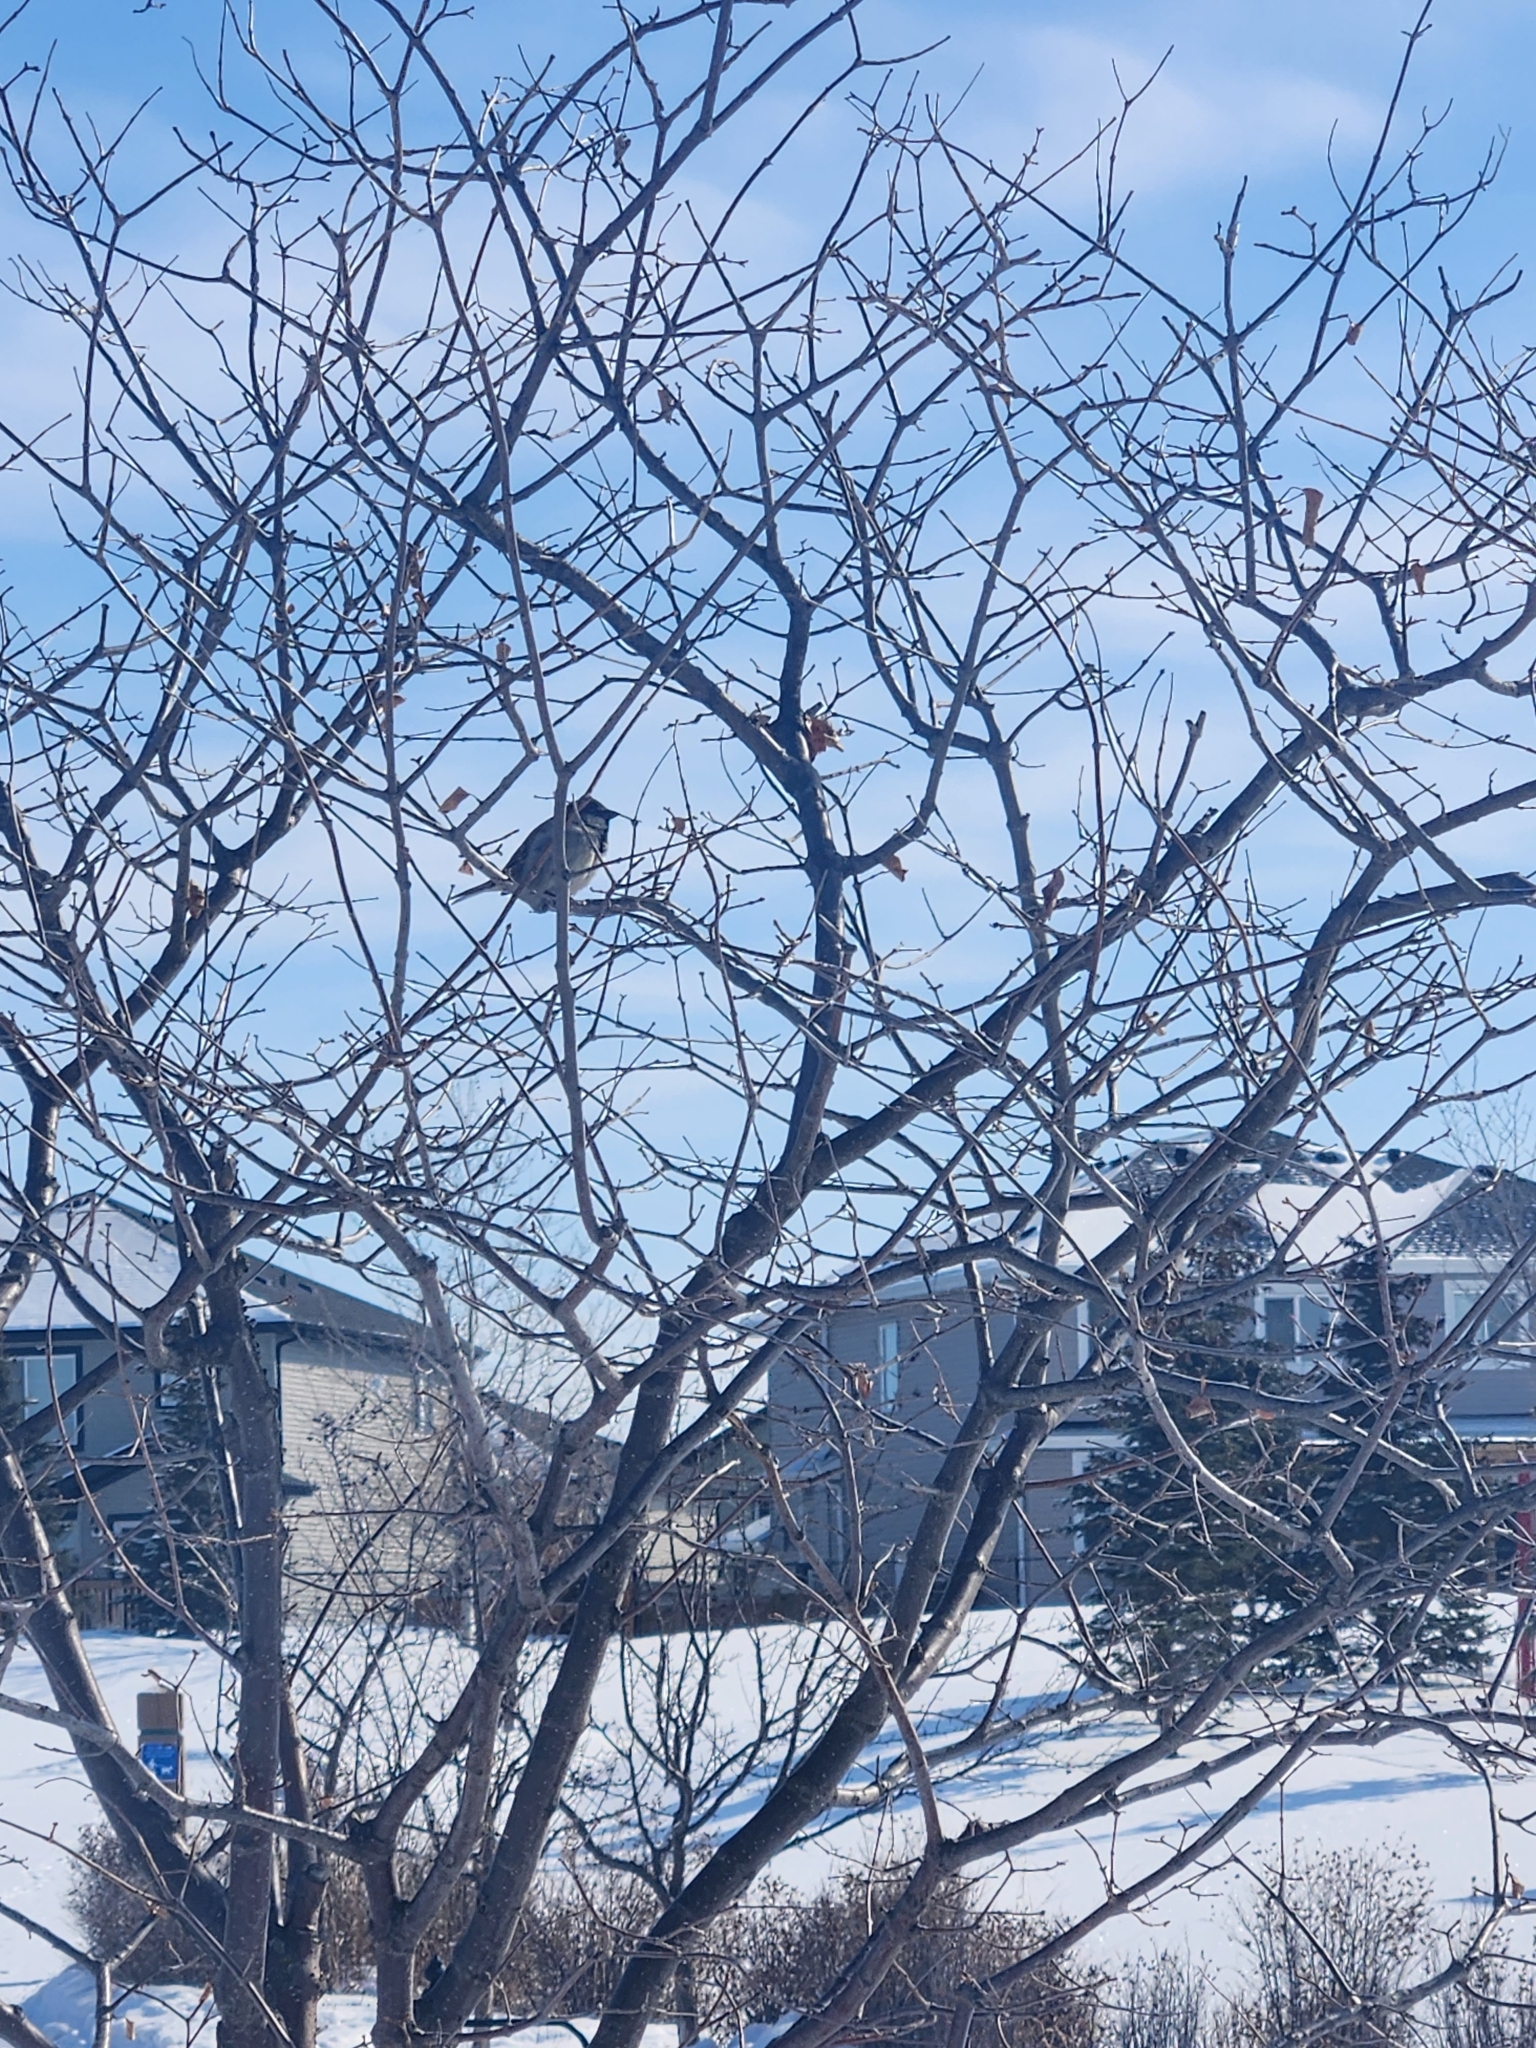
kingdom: Animalia
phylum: Chordata
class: Aves
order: Passeriformes
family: Passeridae
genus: Passer
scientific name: Passer domesticus
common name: House sparrow
